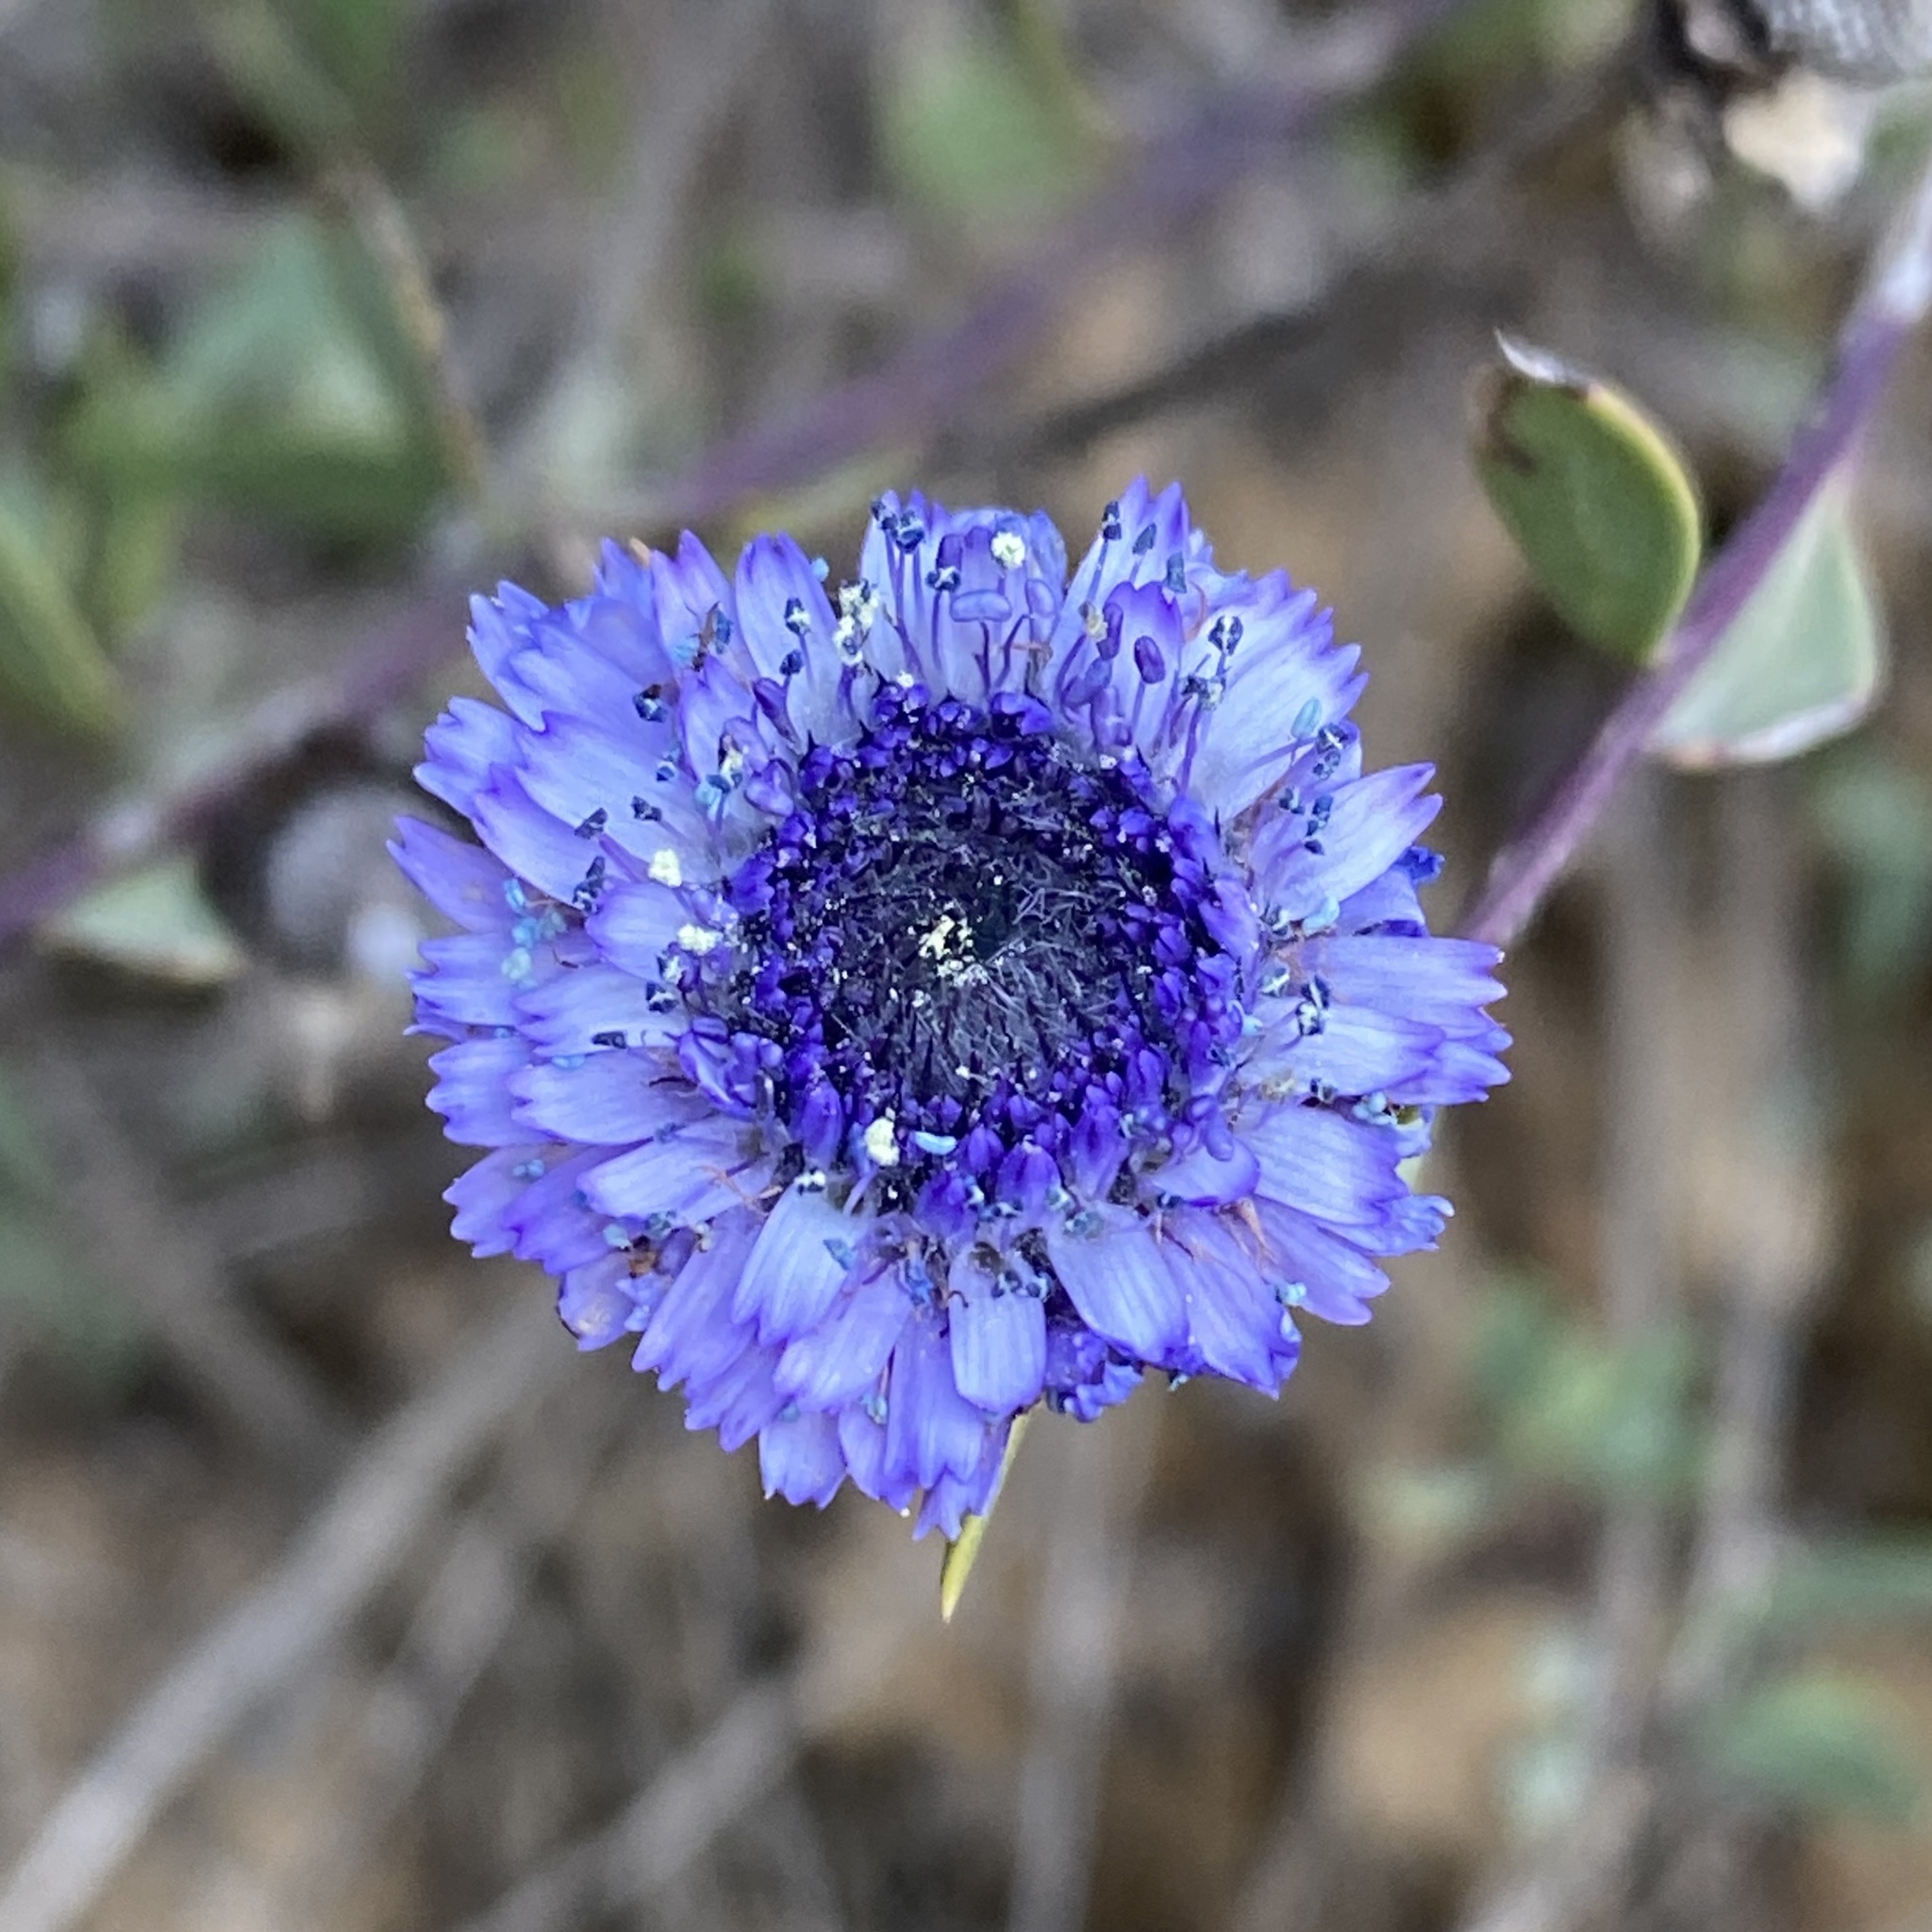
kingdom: Plantae
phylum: Tracheophyta
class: Magnoliopsida
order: Lamiales
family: Plantaginaceae
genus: Globularia
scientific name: Globularia alypum
